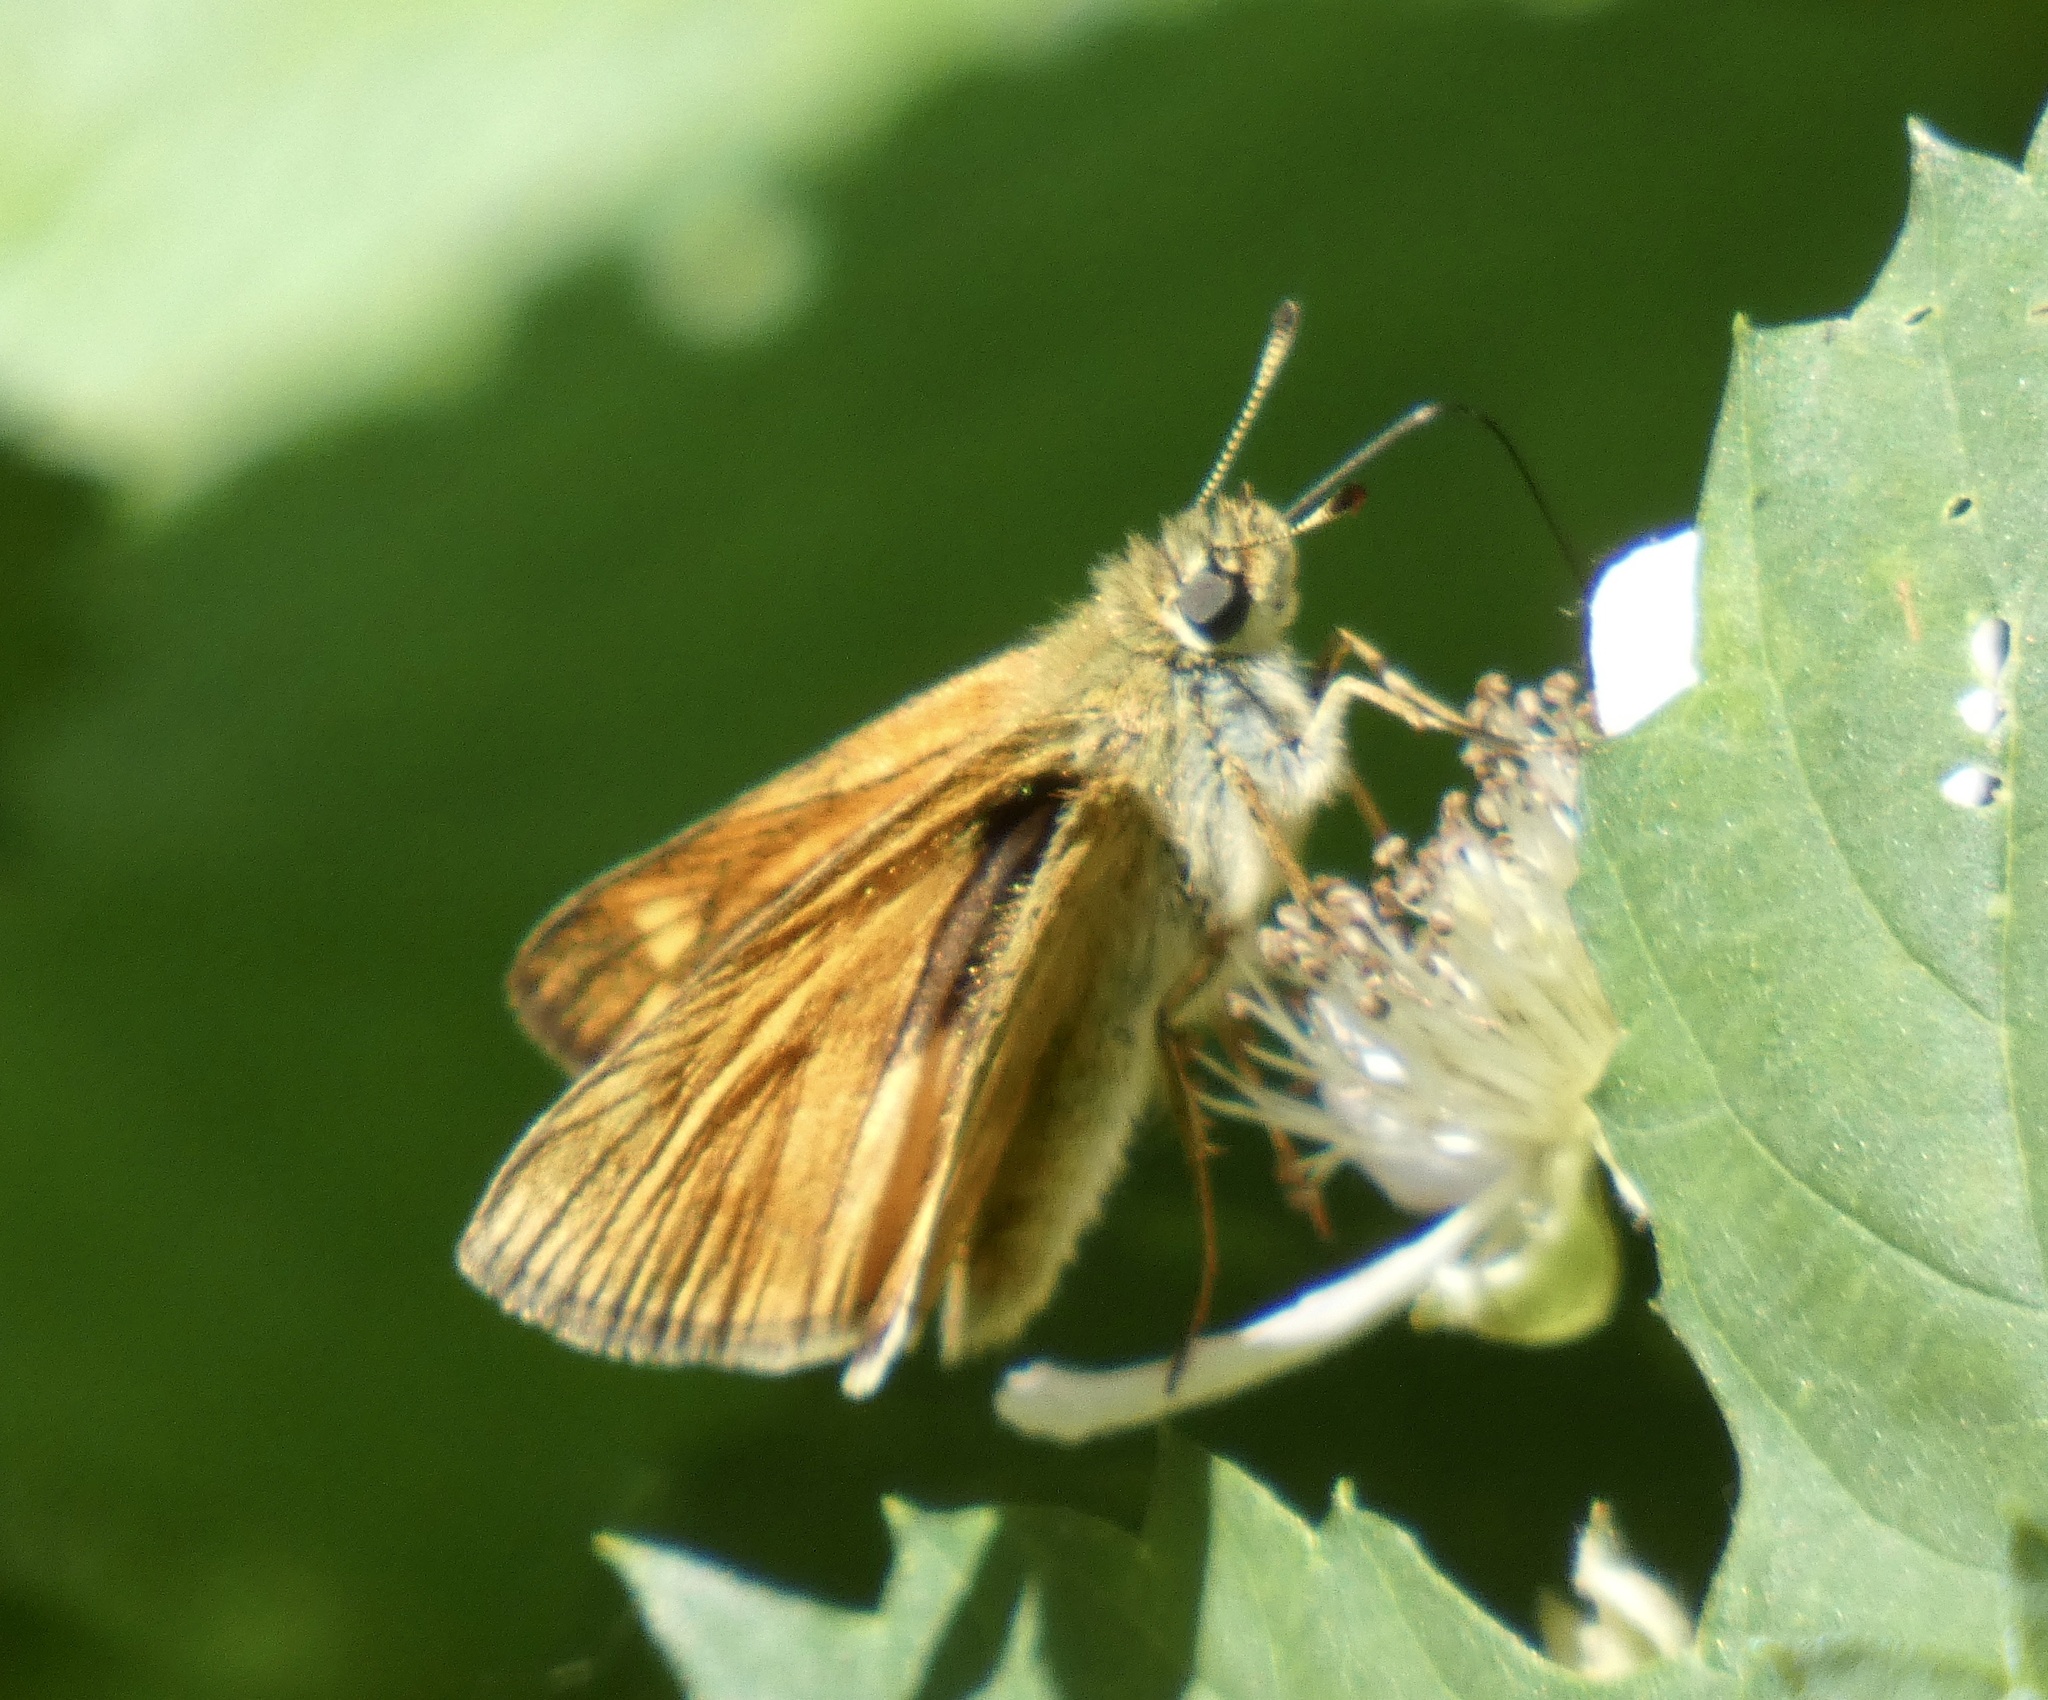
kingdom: Animalia
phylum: Arthropoda
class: Insecta
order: Lepidoptera
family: Hesperiidae
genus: Ochlodes
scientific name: Ochlodes venata
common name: Large skipper
